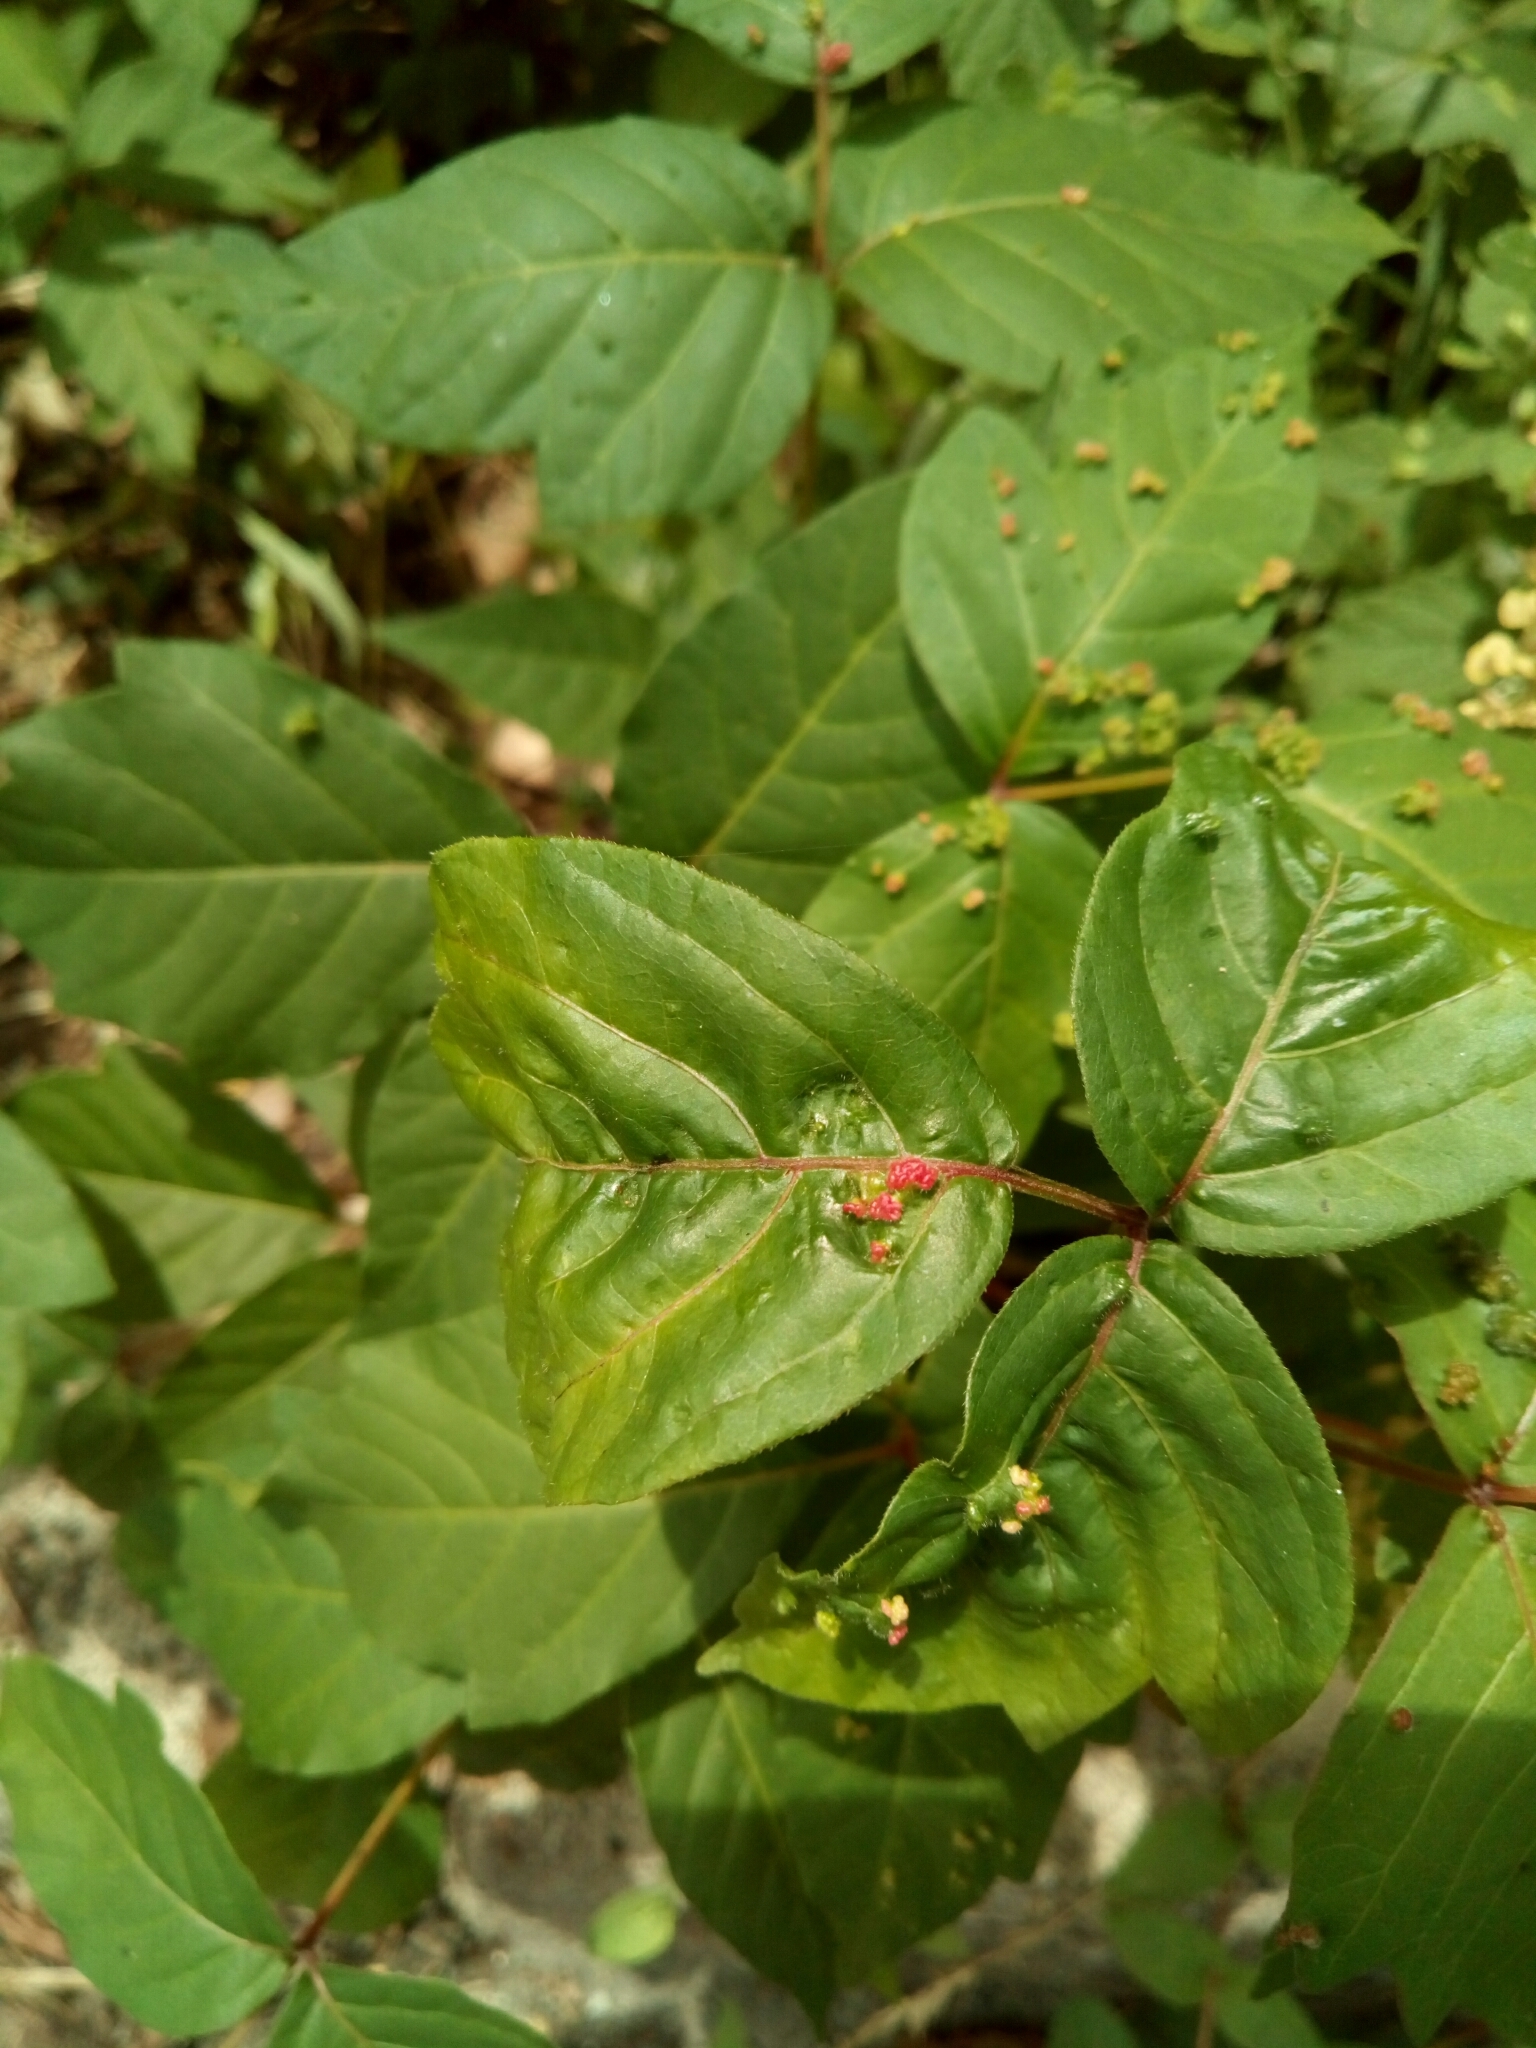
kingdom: Animalia
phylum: Arthropoda
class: Arachnida
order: Trombidiformes
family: Eriophyidae
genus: Aculops
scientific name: Aculops
